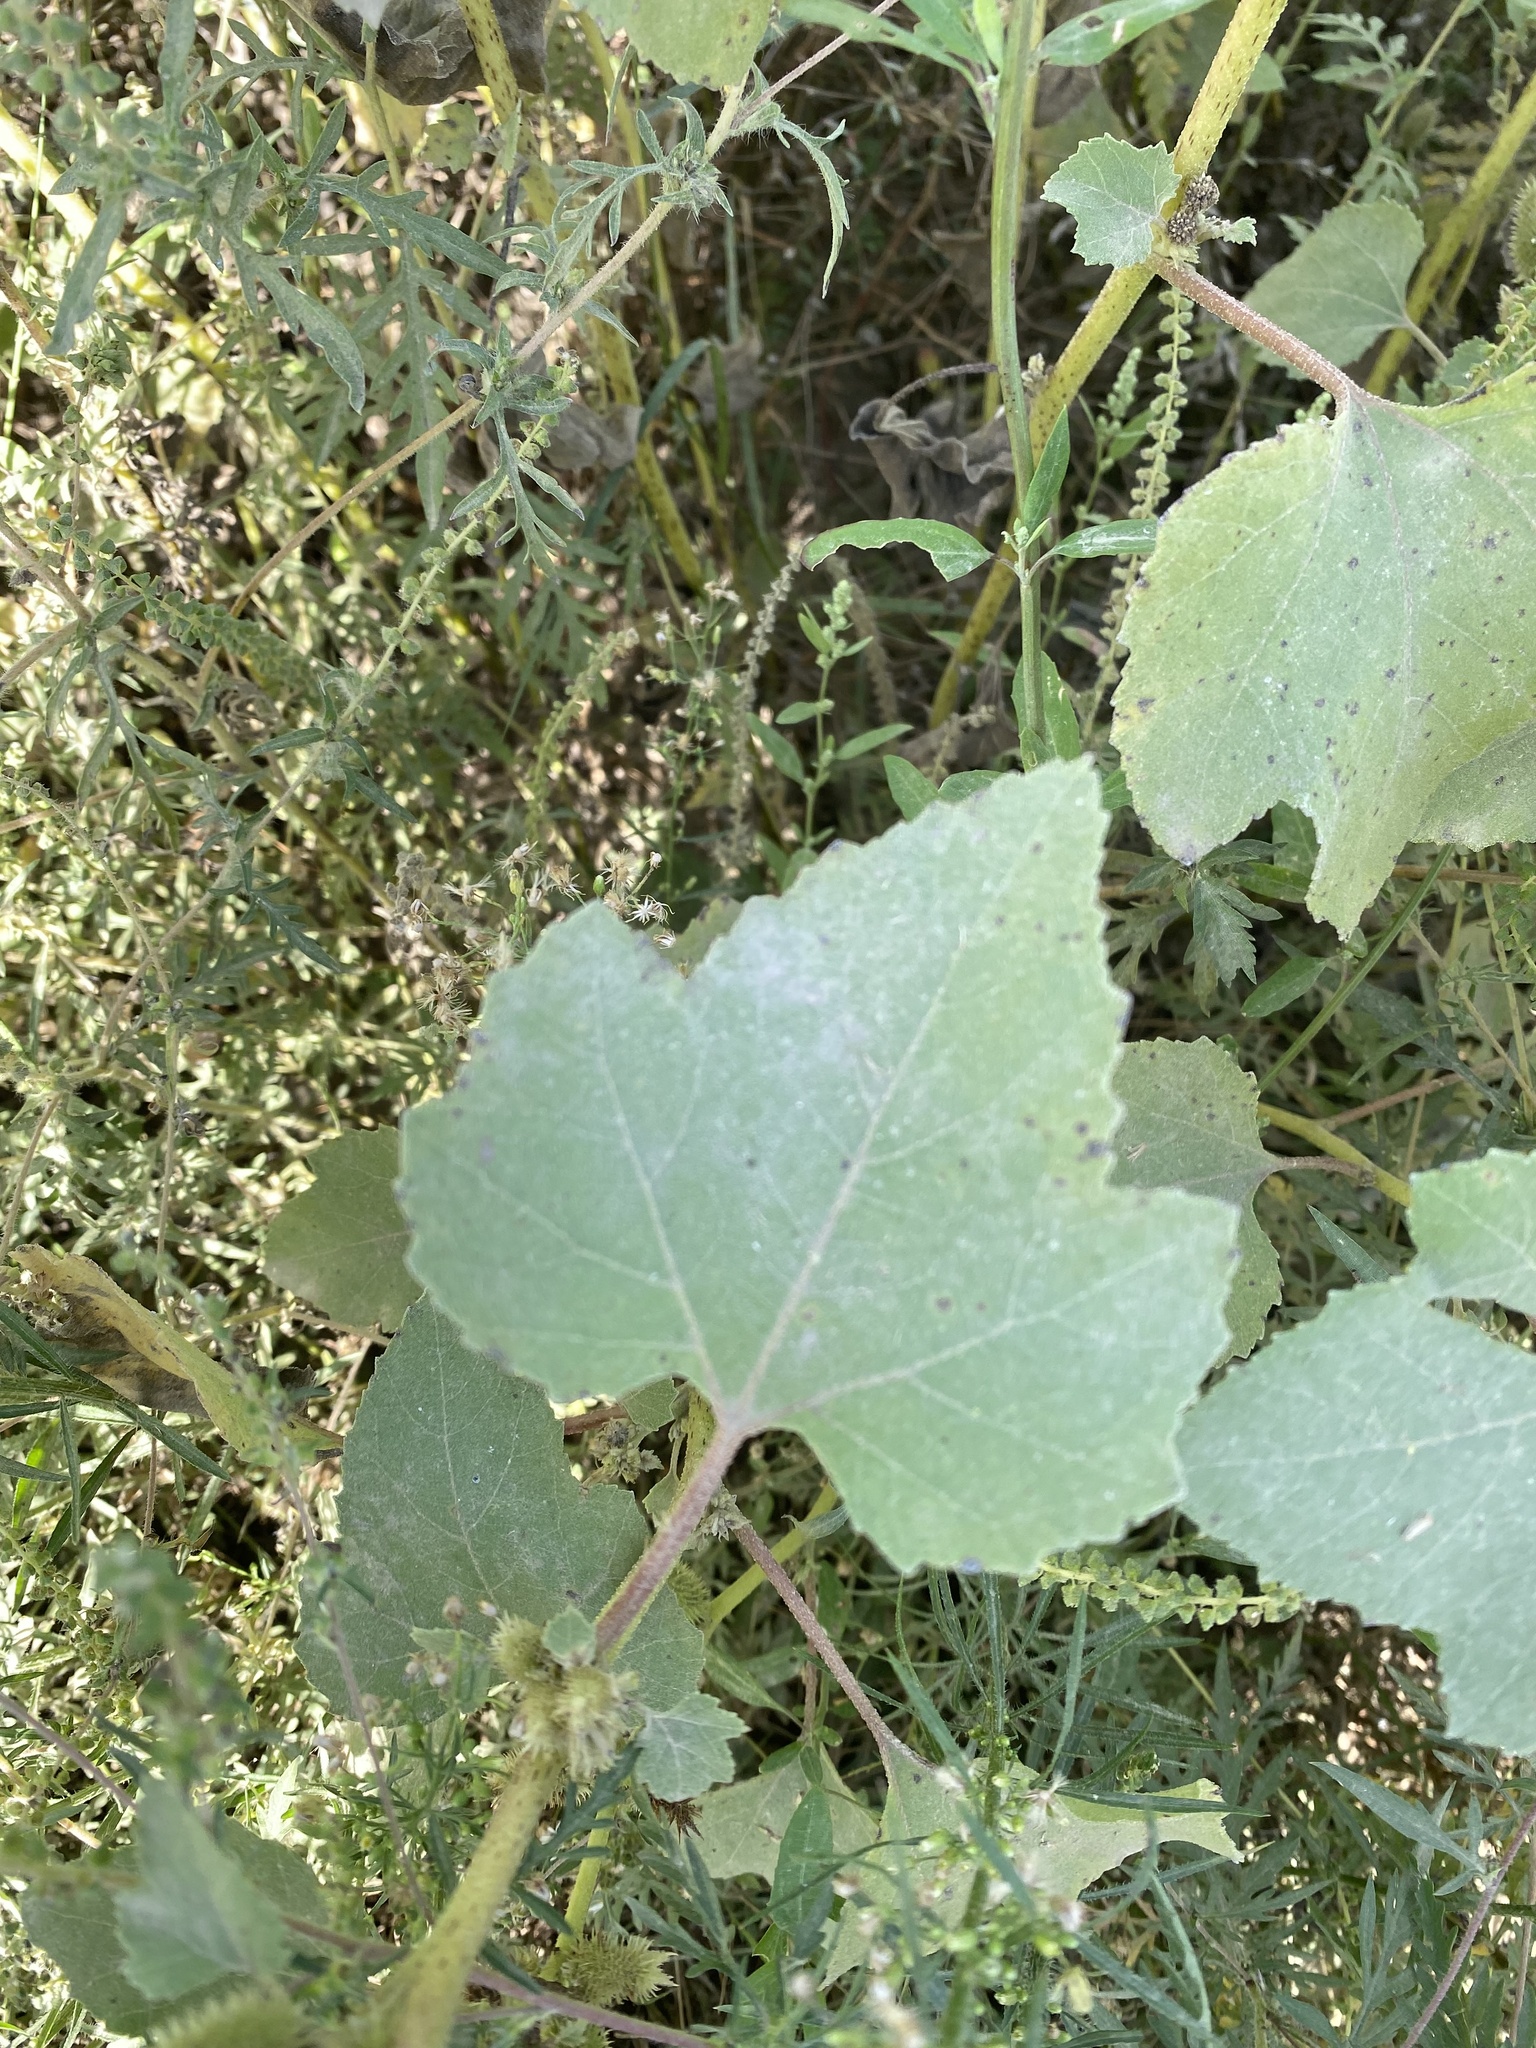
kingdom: Plantae
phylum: Tracheophyta
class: Magnoliopsida
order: Asterales
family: Asteraceae
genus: Xanthium
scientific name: Xanthium orientale
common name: Californian burr
